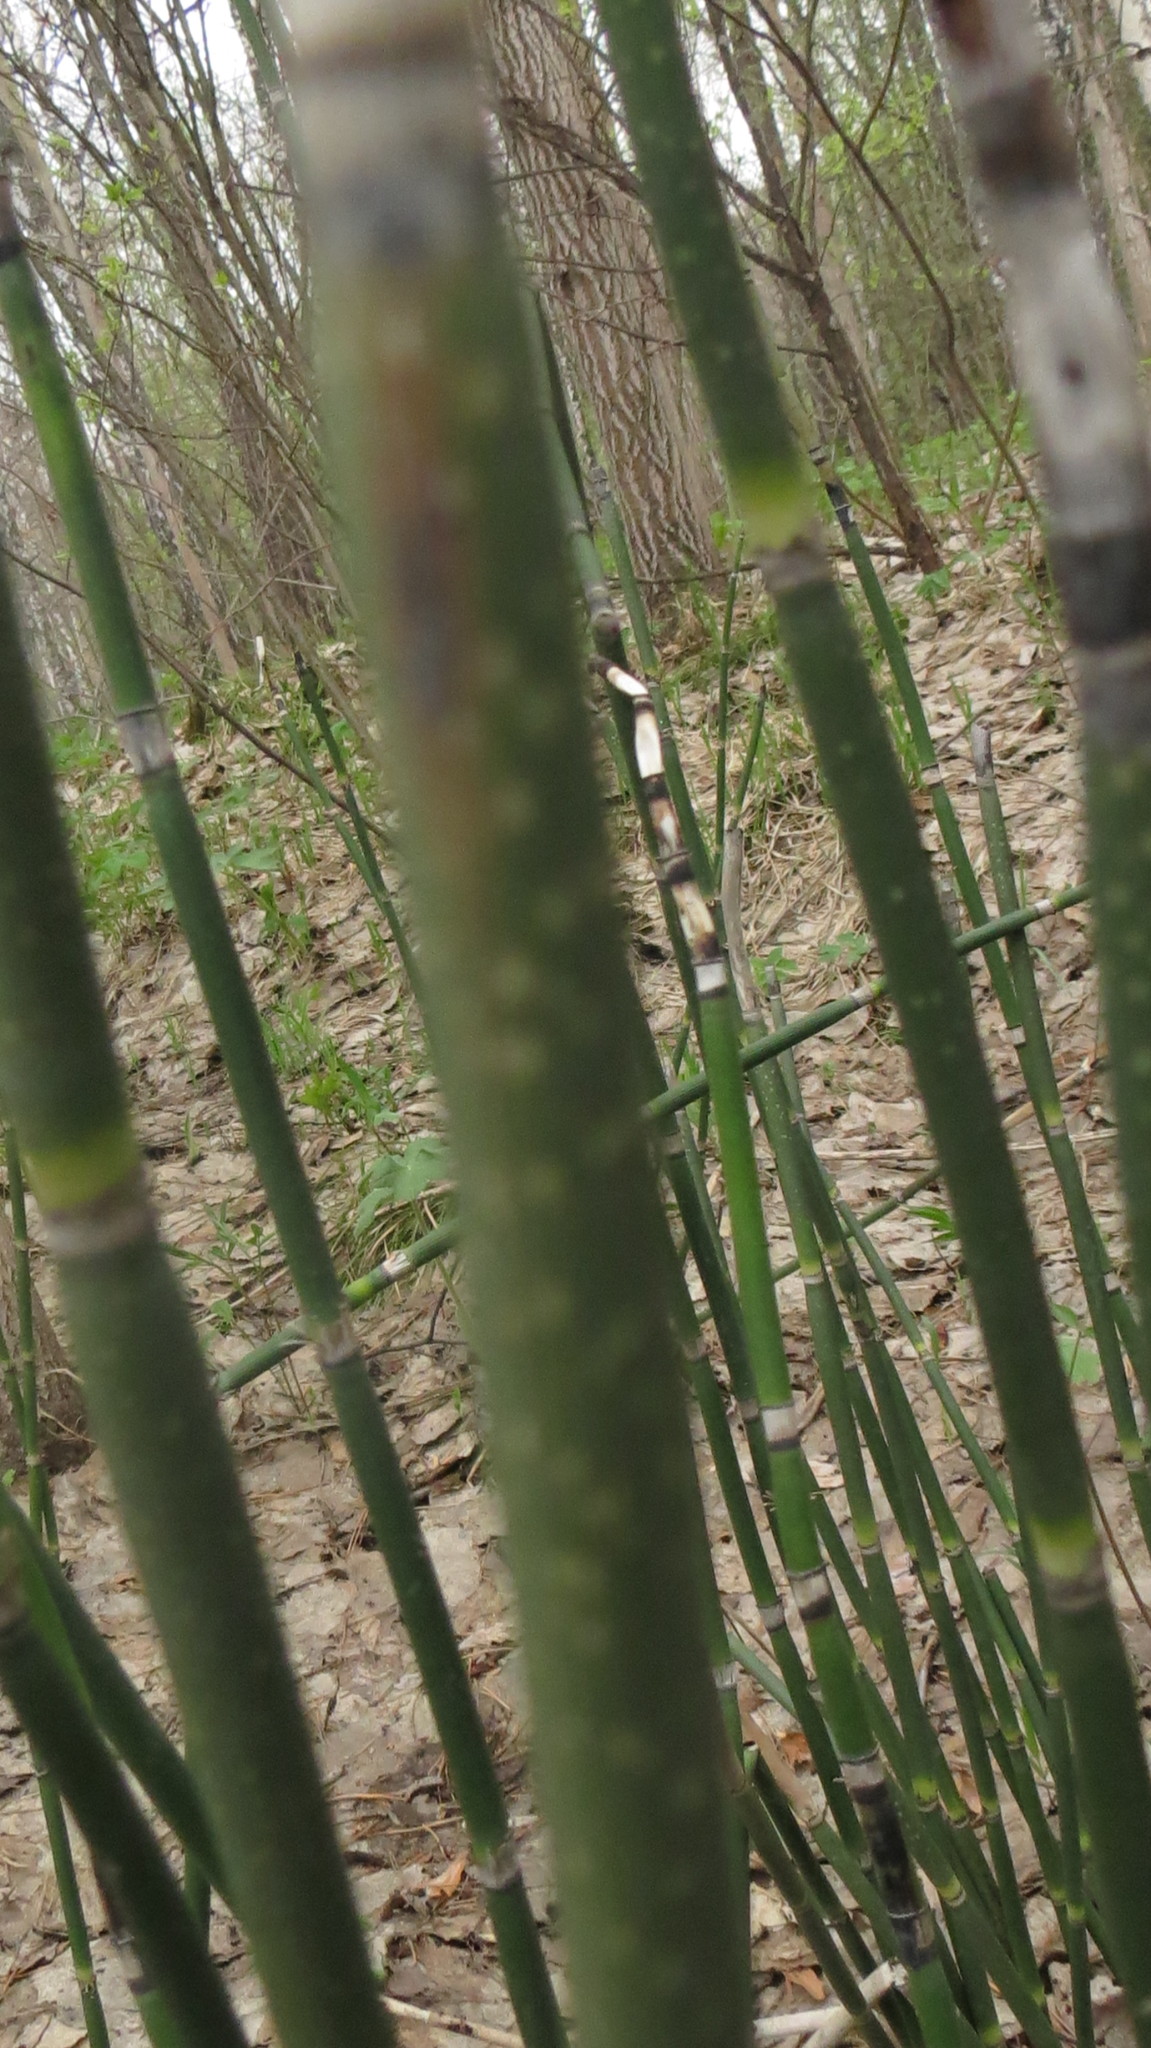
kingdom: Plantae
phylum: Tracheophyta
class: Polypodiopsida
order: Equisetales
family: Equisetaceae
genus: Equisetum
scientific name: Equisetum hyemale
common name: Rough horsetail
